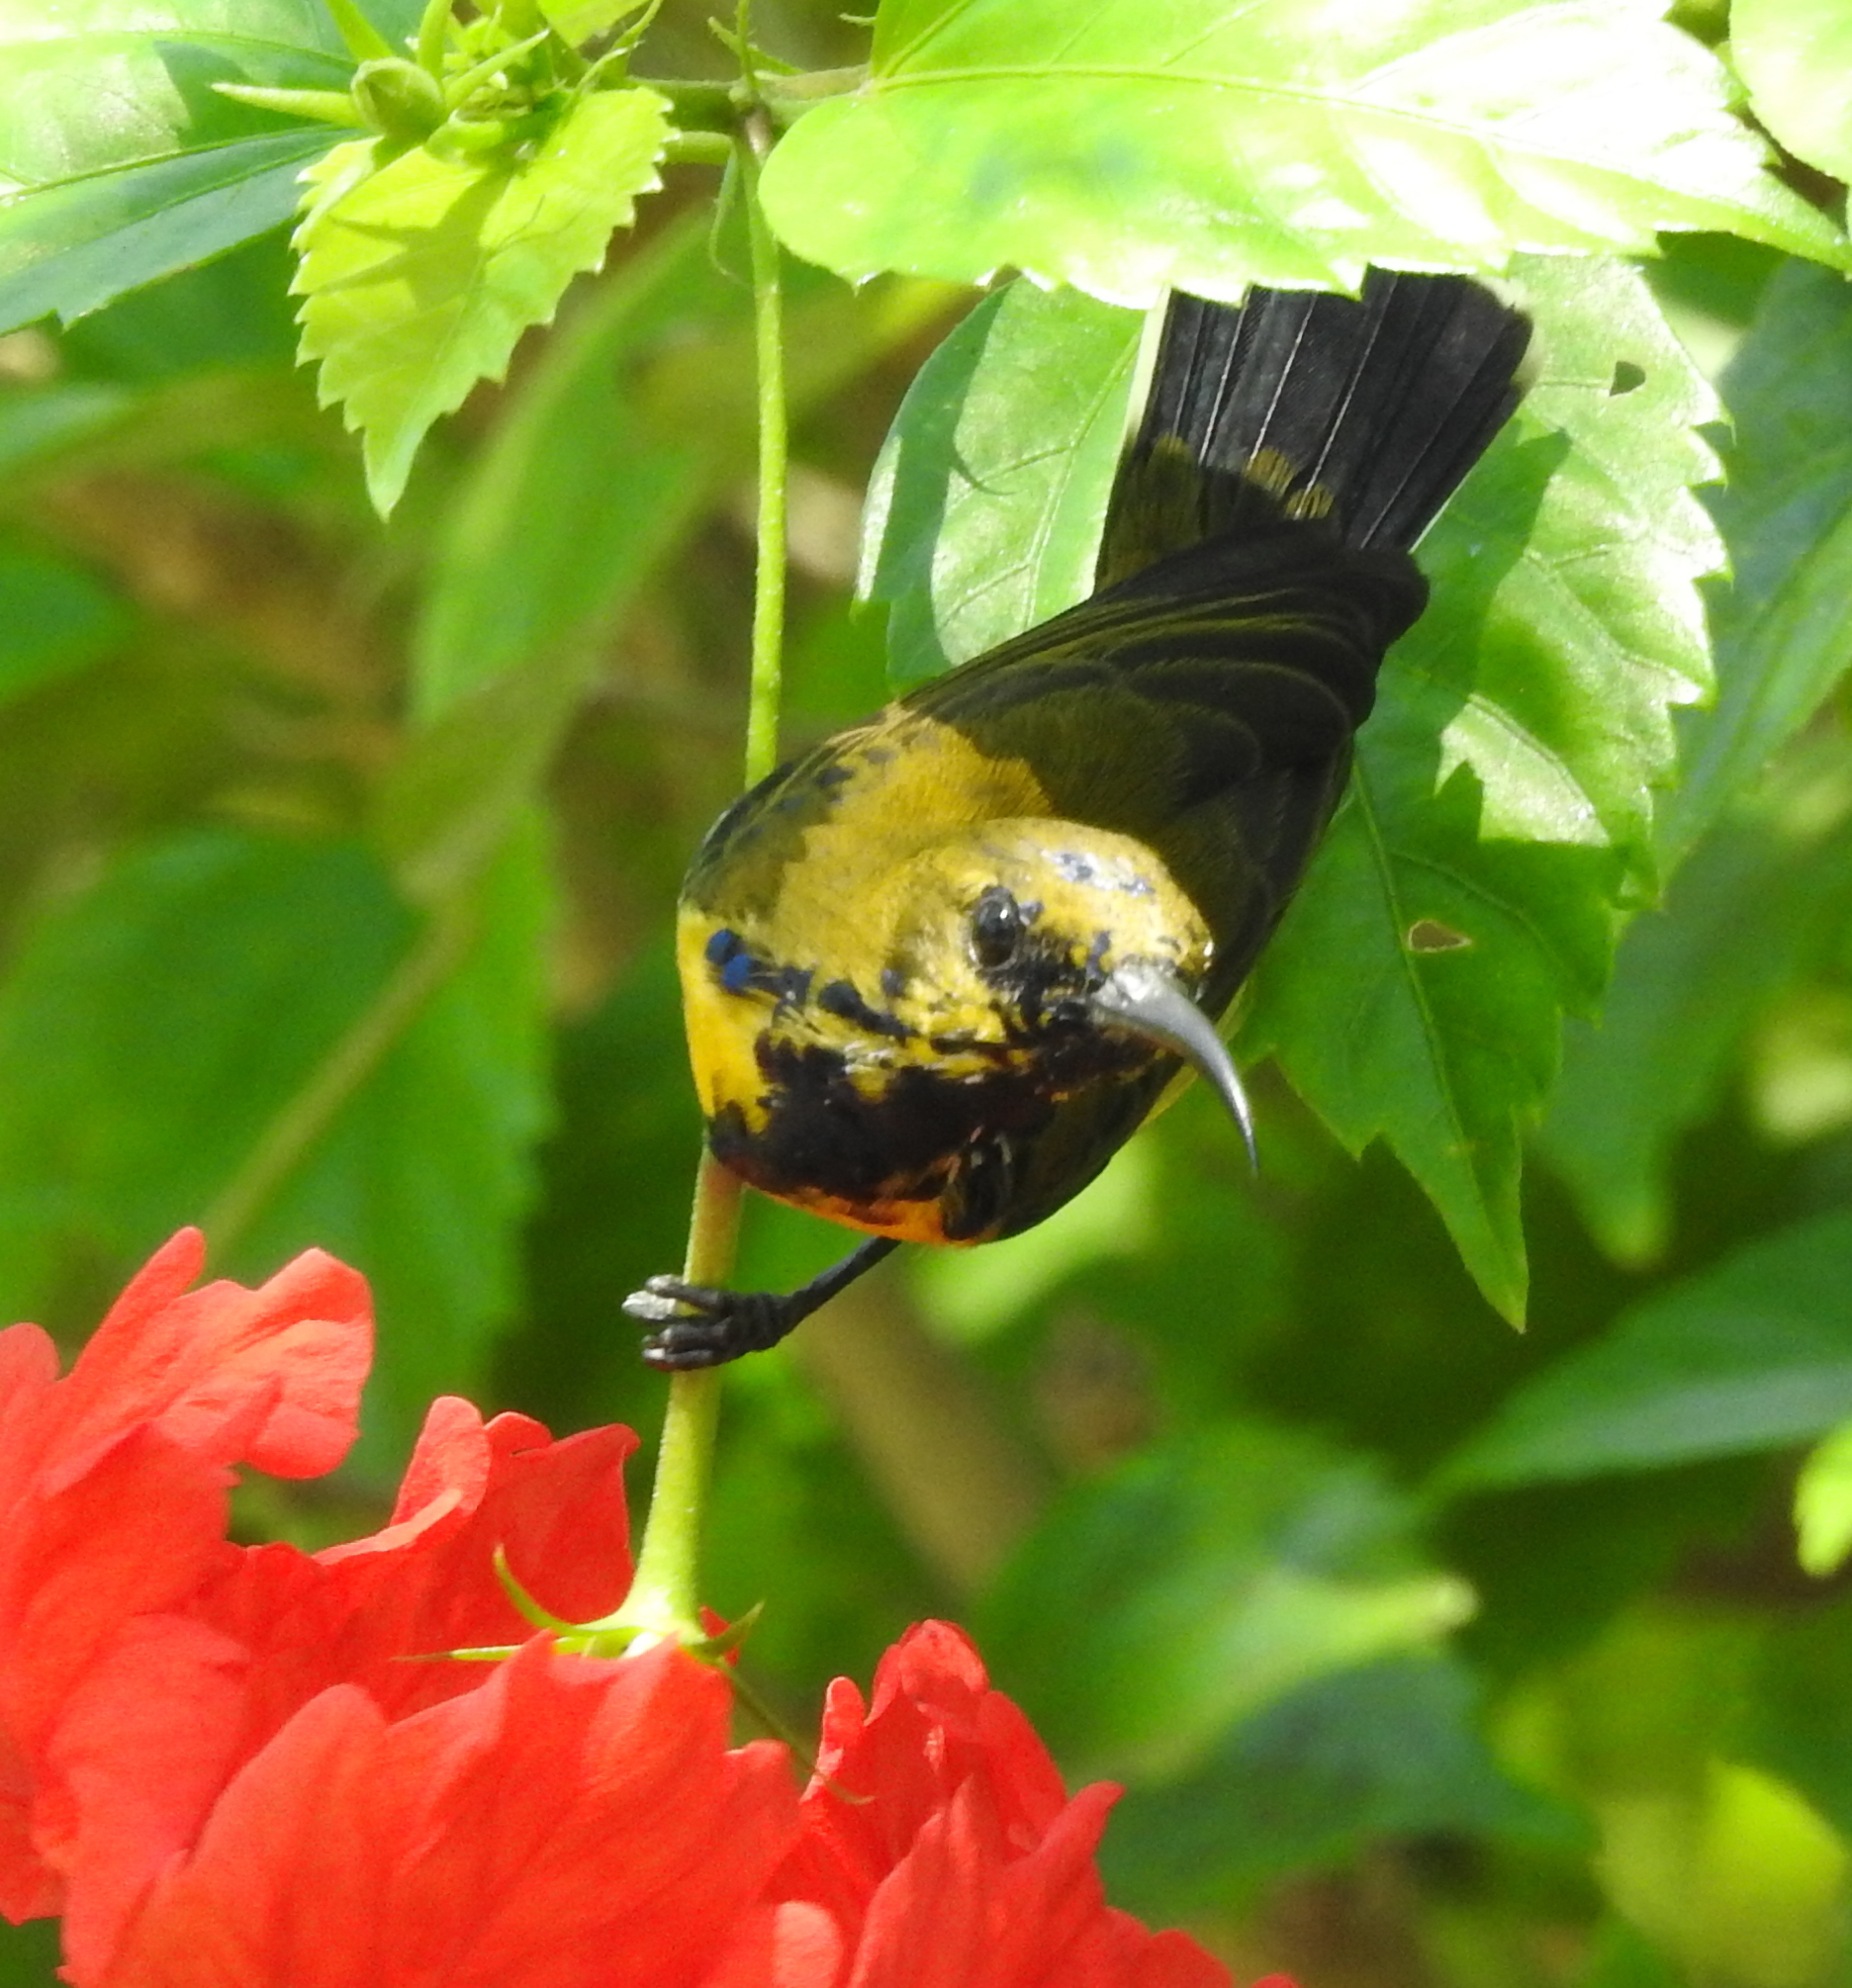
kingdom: Animalia
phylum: Chordata
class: Aves
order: Passeriformes
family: Nectariniidae
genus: Cinnyris
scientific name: Cinnyris
